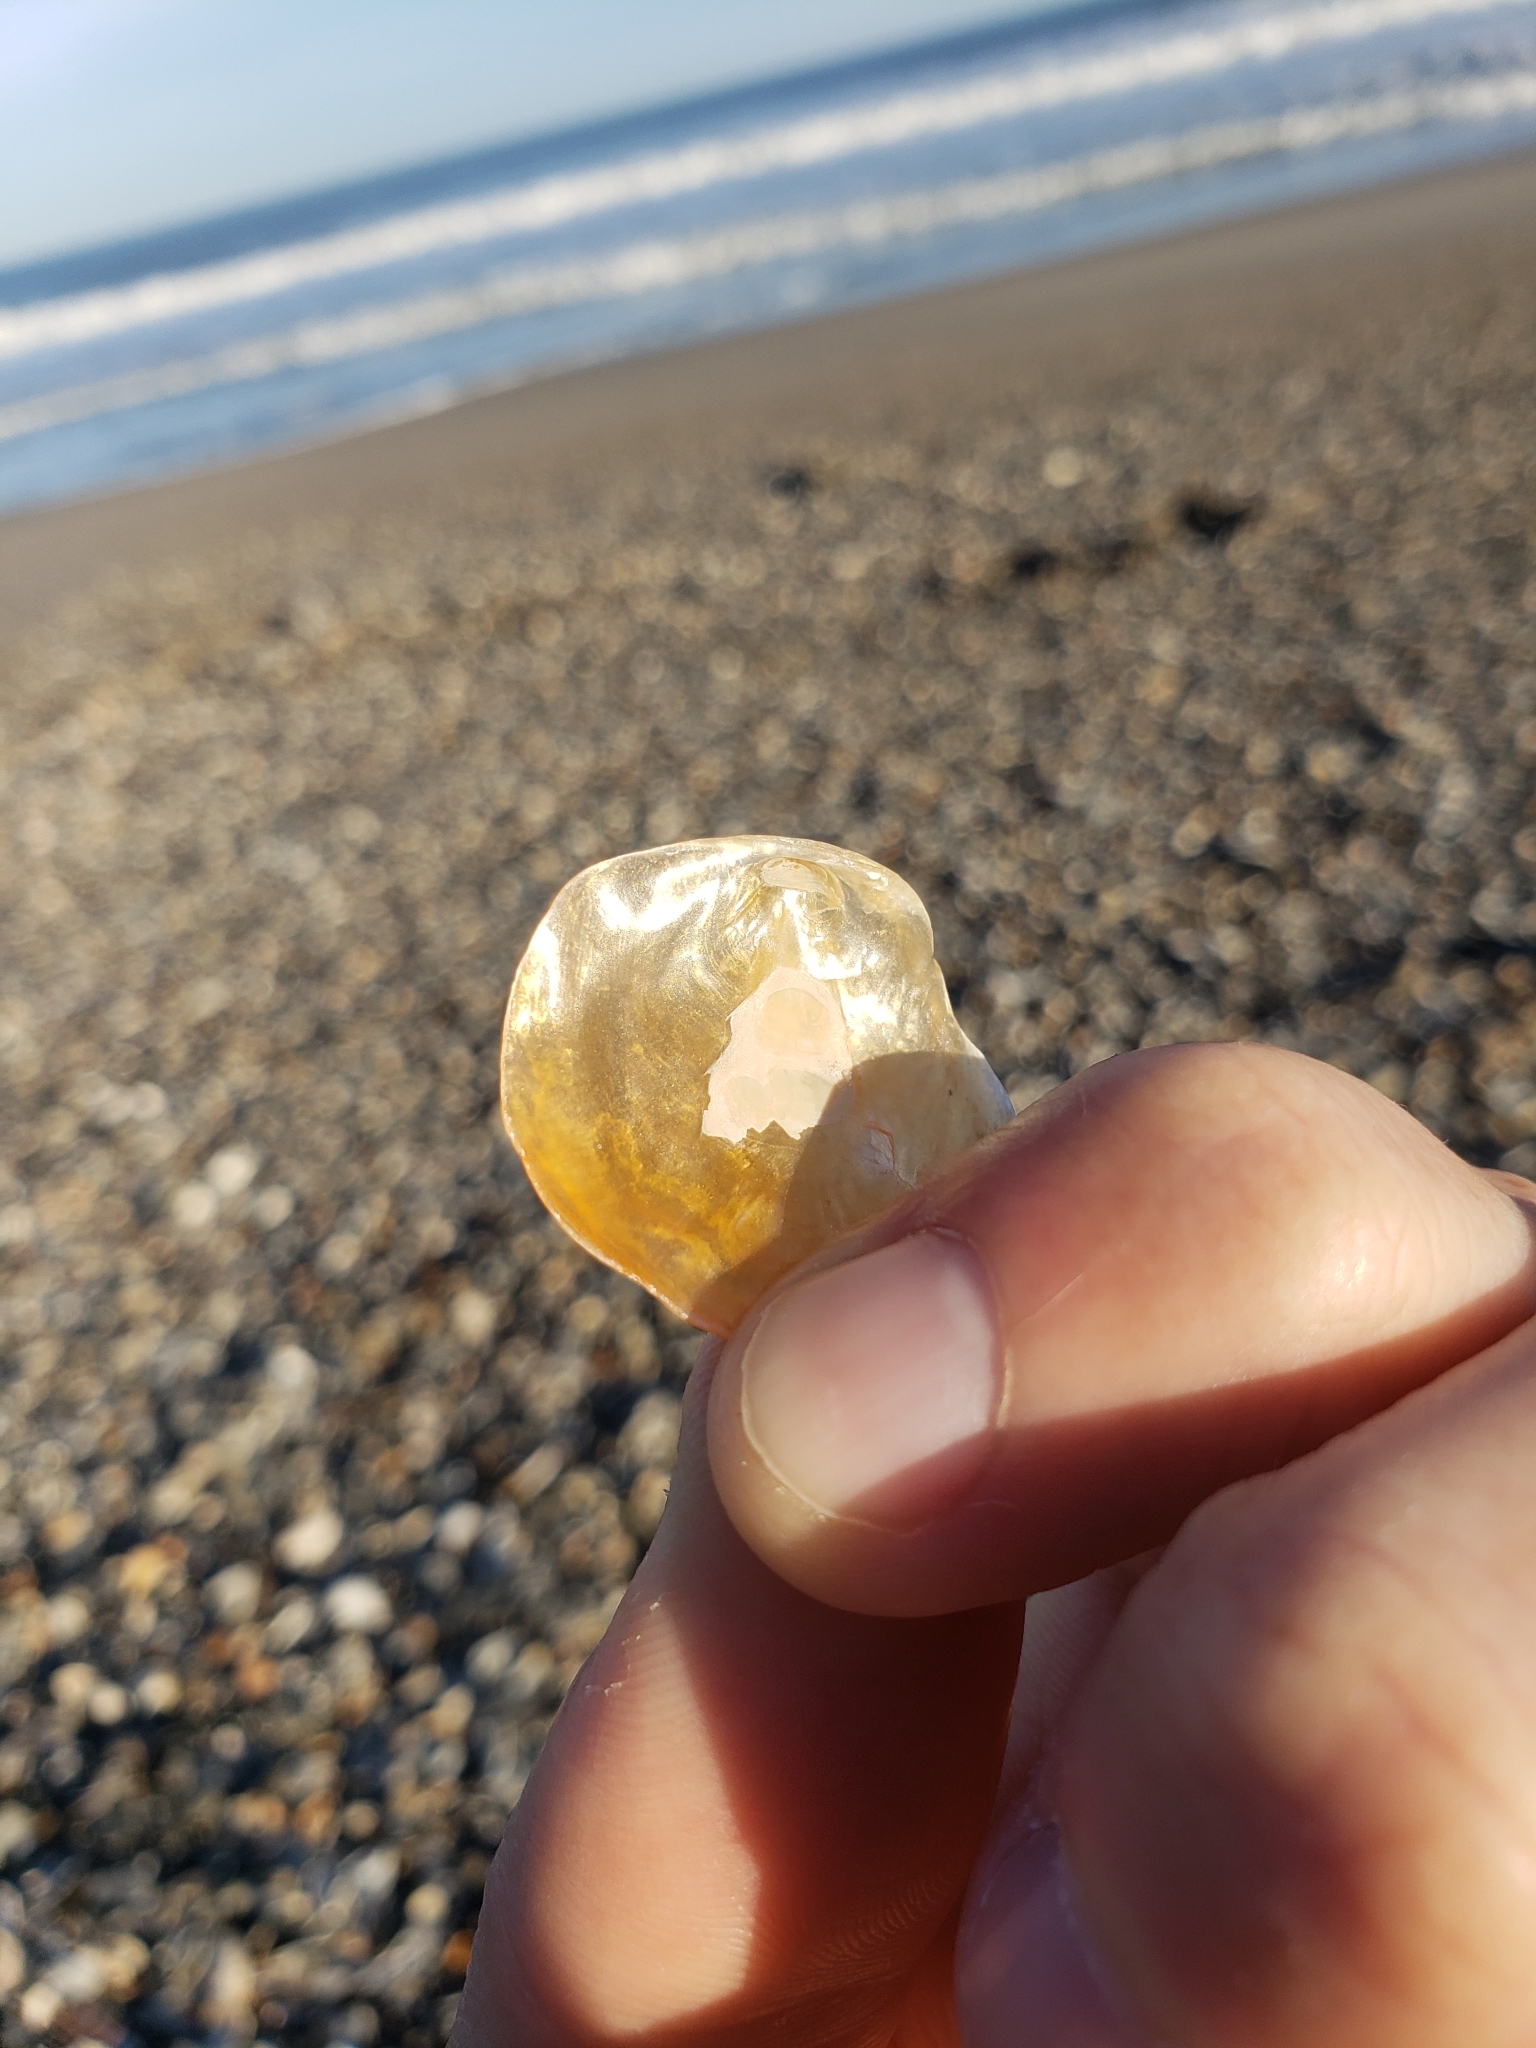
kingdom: Animalia
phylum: Mollusca
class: Bivalvia
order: Pectinida
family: Anomiidae
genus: Anomia
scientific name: Anomia simplex
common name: Common jingle shell
